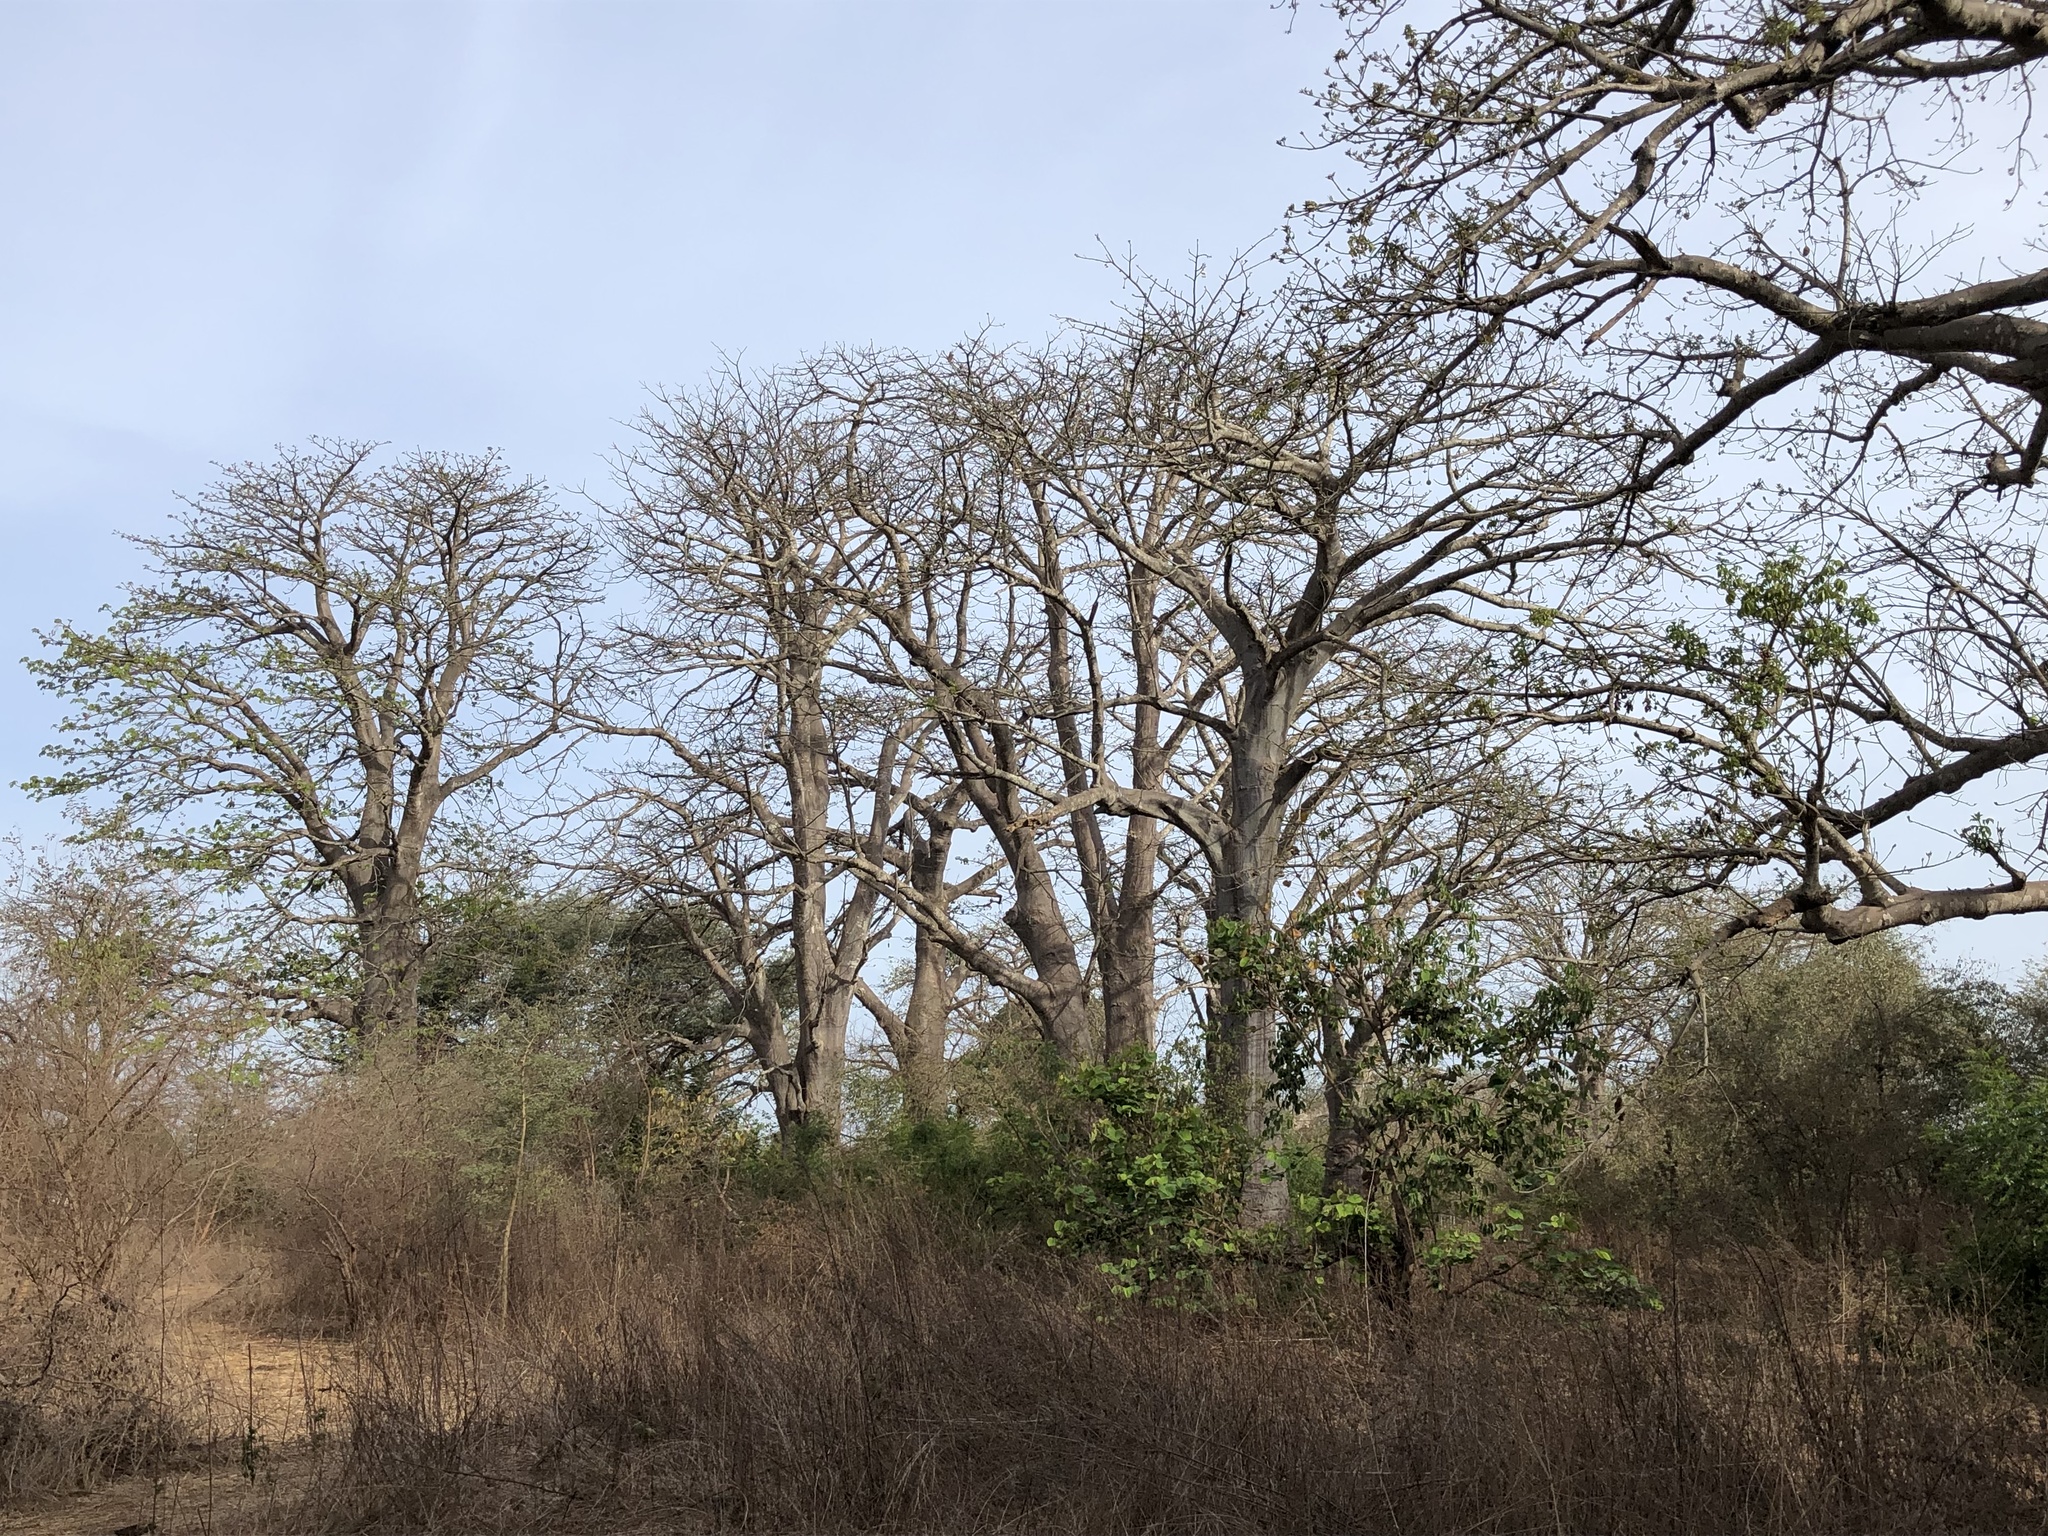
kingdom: Plantae
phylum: Tracheophyta
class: Magnoliopsida
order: Malvales
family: Malvaceae
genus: Adansonia
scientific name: Adansonia digitata
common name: Dead-rat-tree
